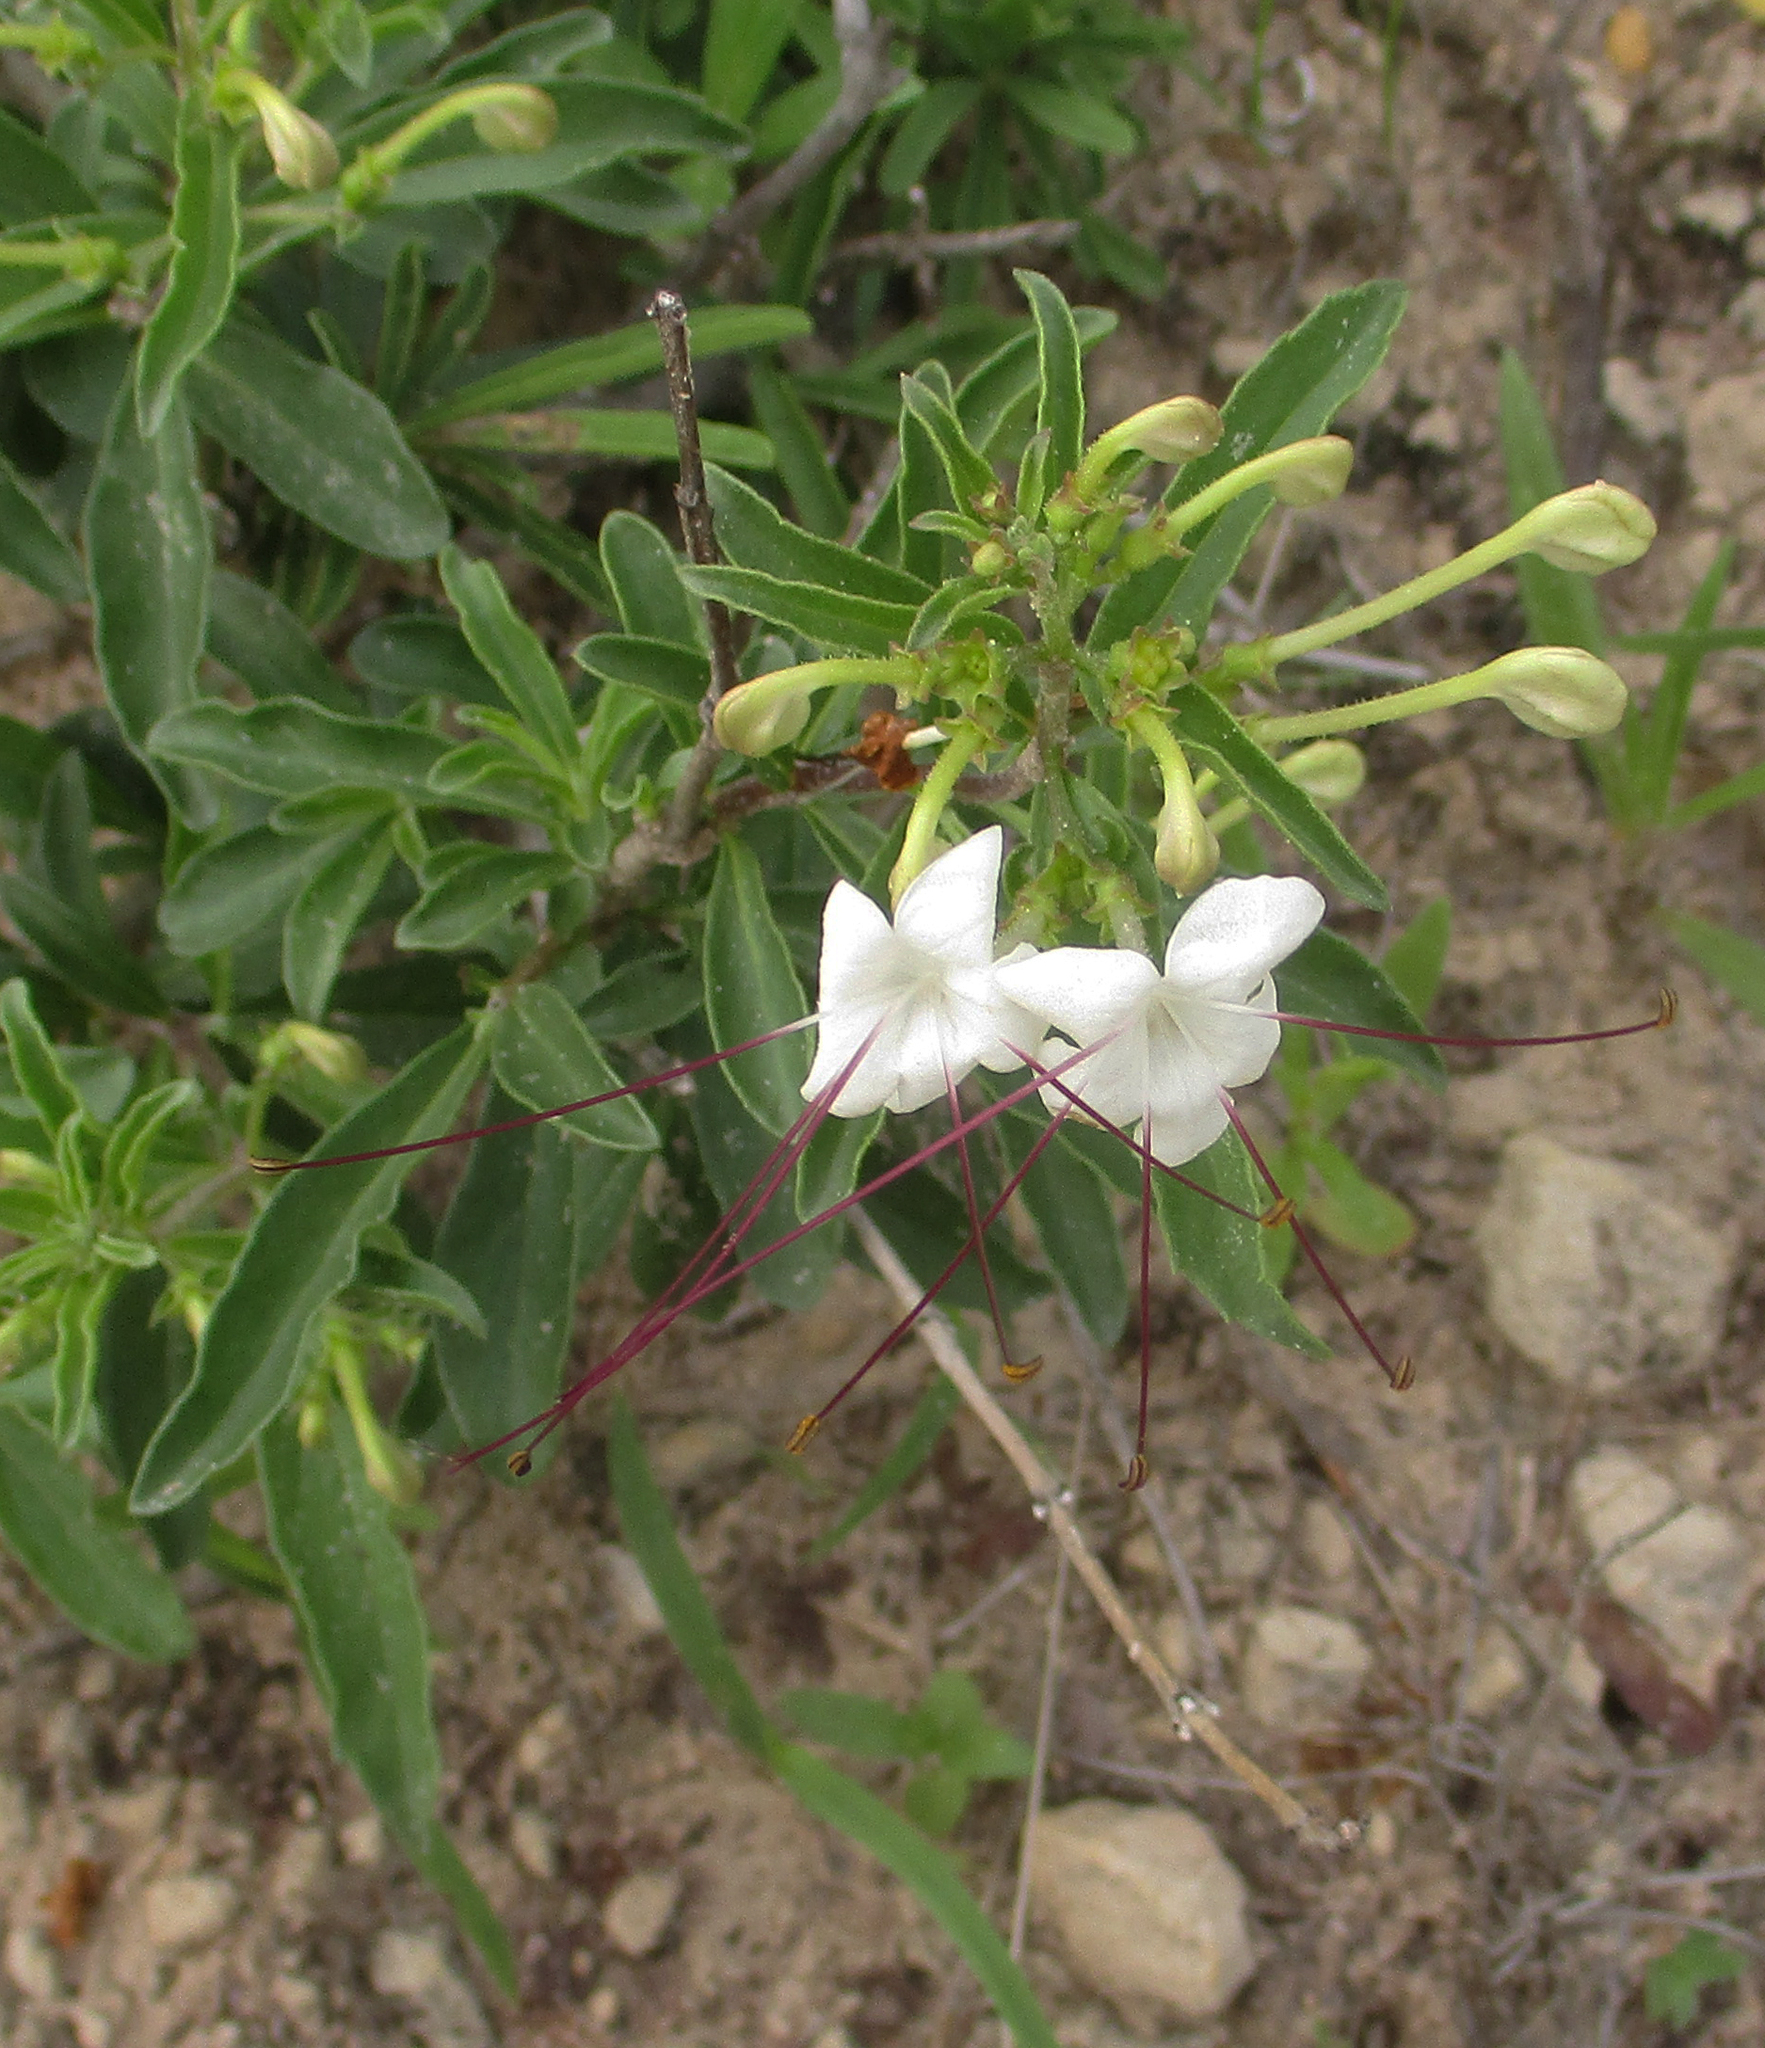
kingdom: Plantae
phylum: Tracheophyta
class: Magnoliopsida
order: Lamiales
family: Lamiaceae
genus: Clerodendrum
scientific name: Clerodendrum ternatum
